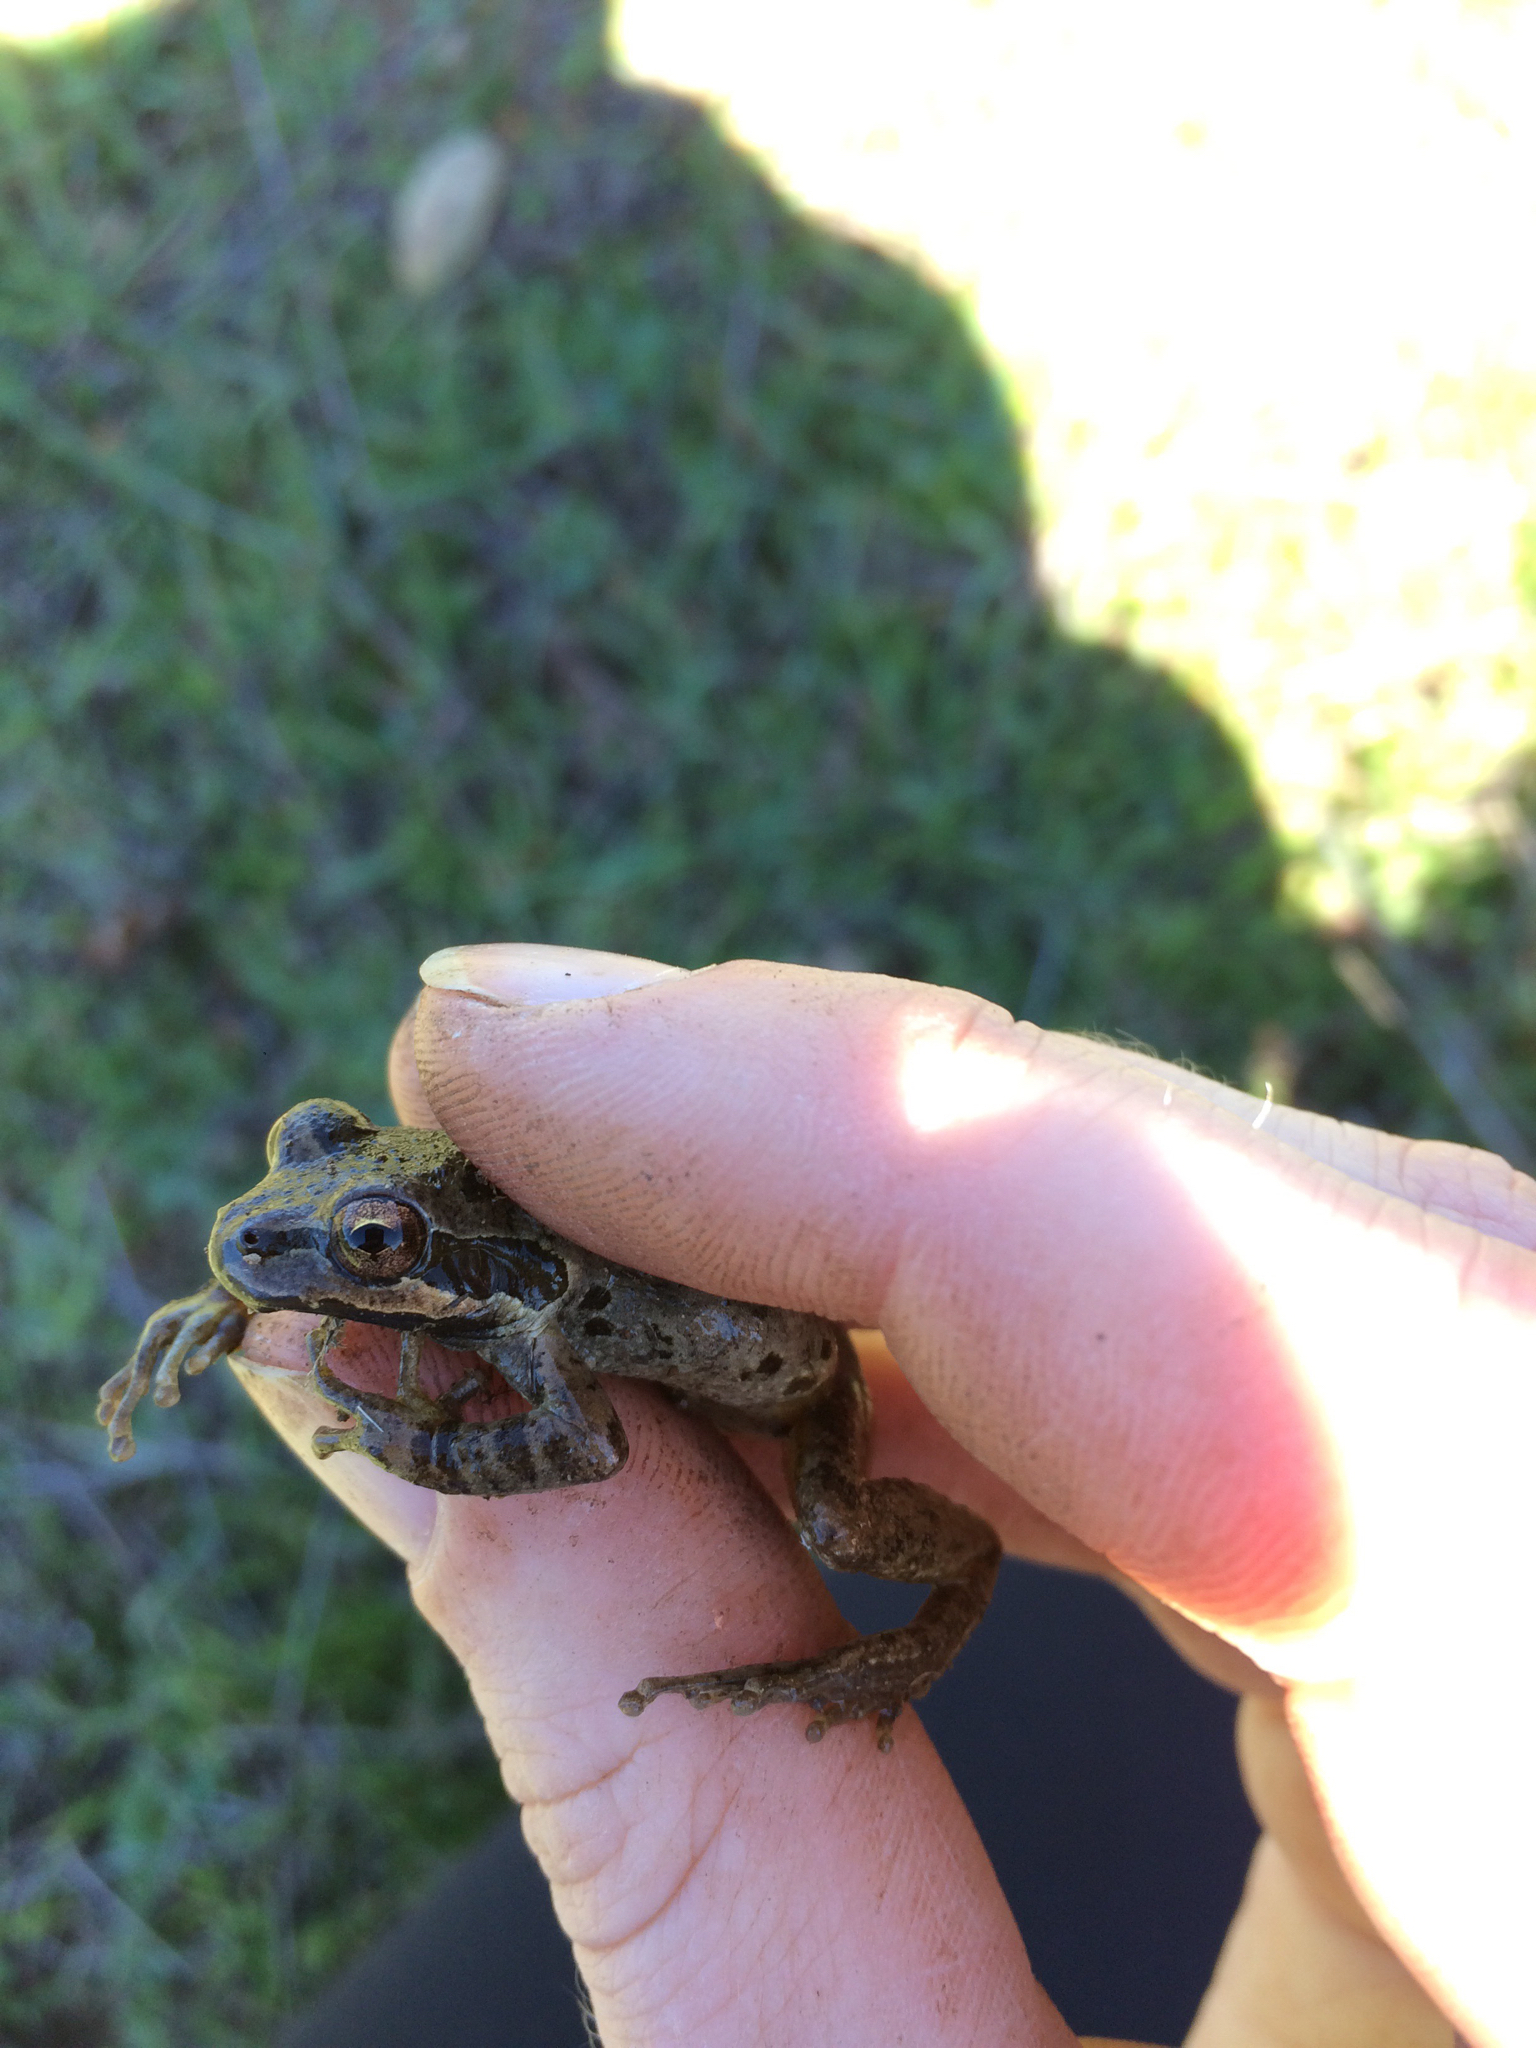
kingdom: Animalia
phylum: Chordata
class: Amphibia
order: Anura
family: Hylidae
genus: Pseudacris
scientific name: Pseudacris regilla
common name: Pacific chorus frog
